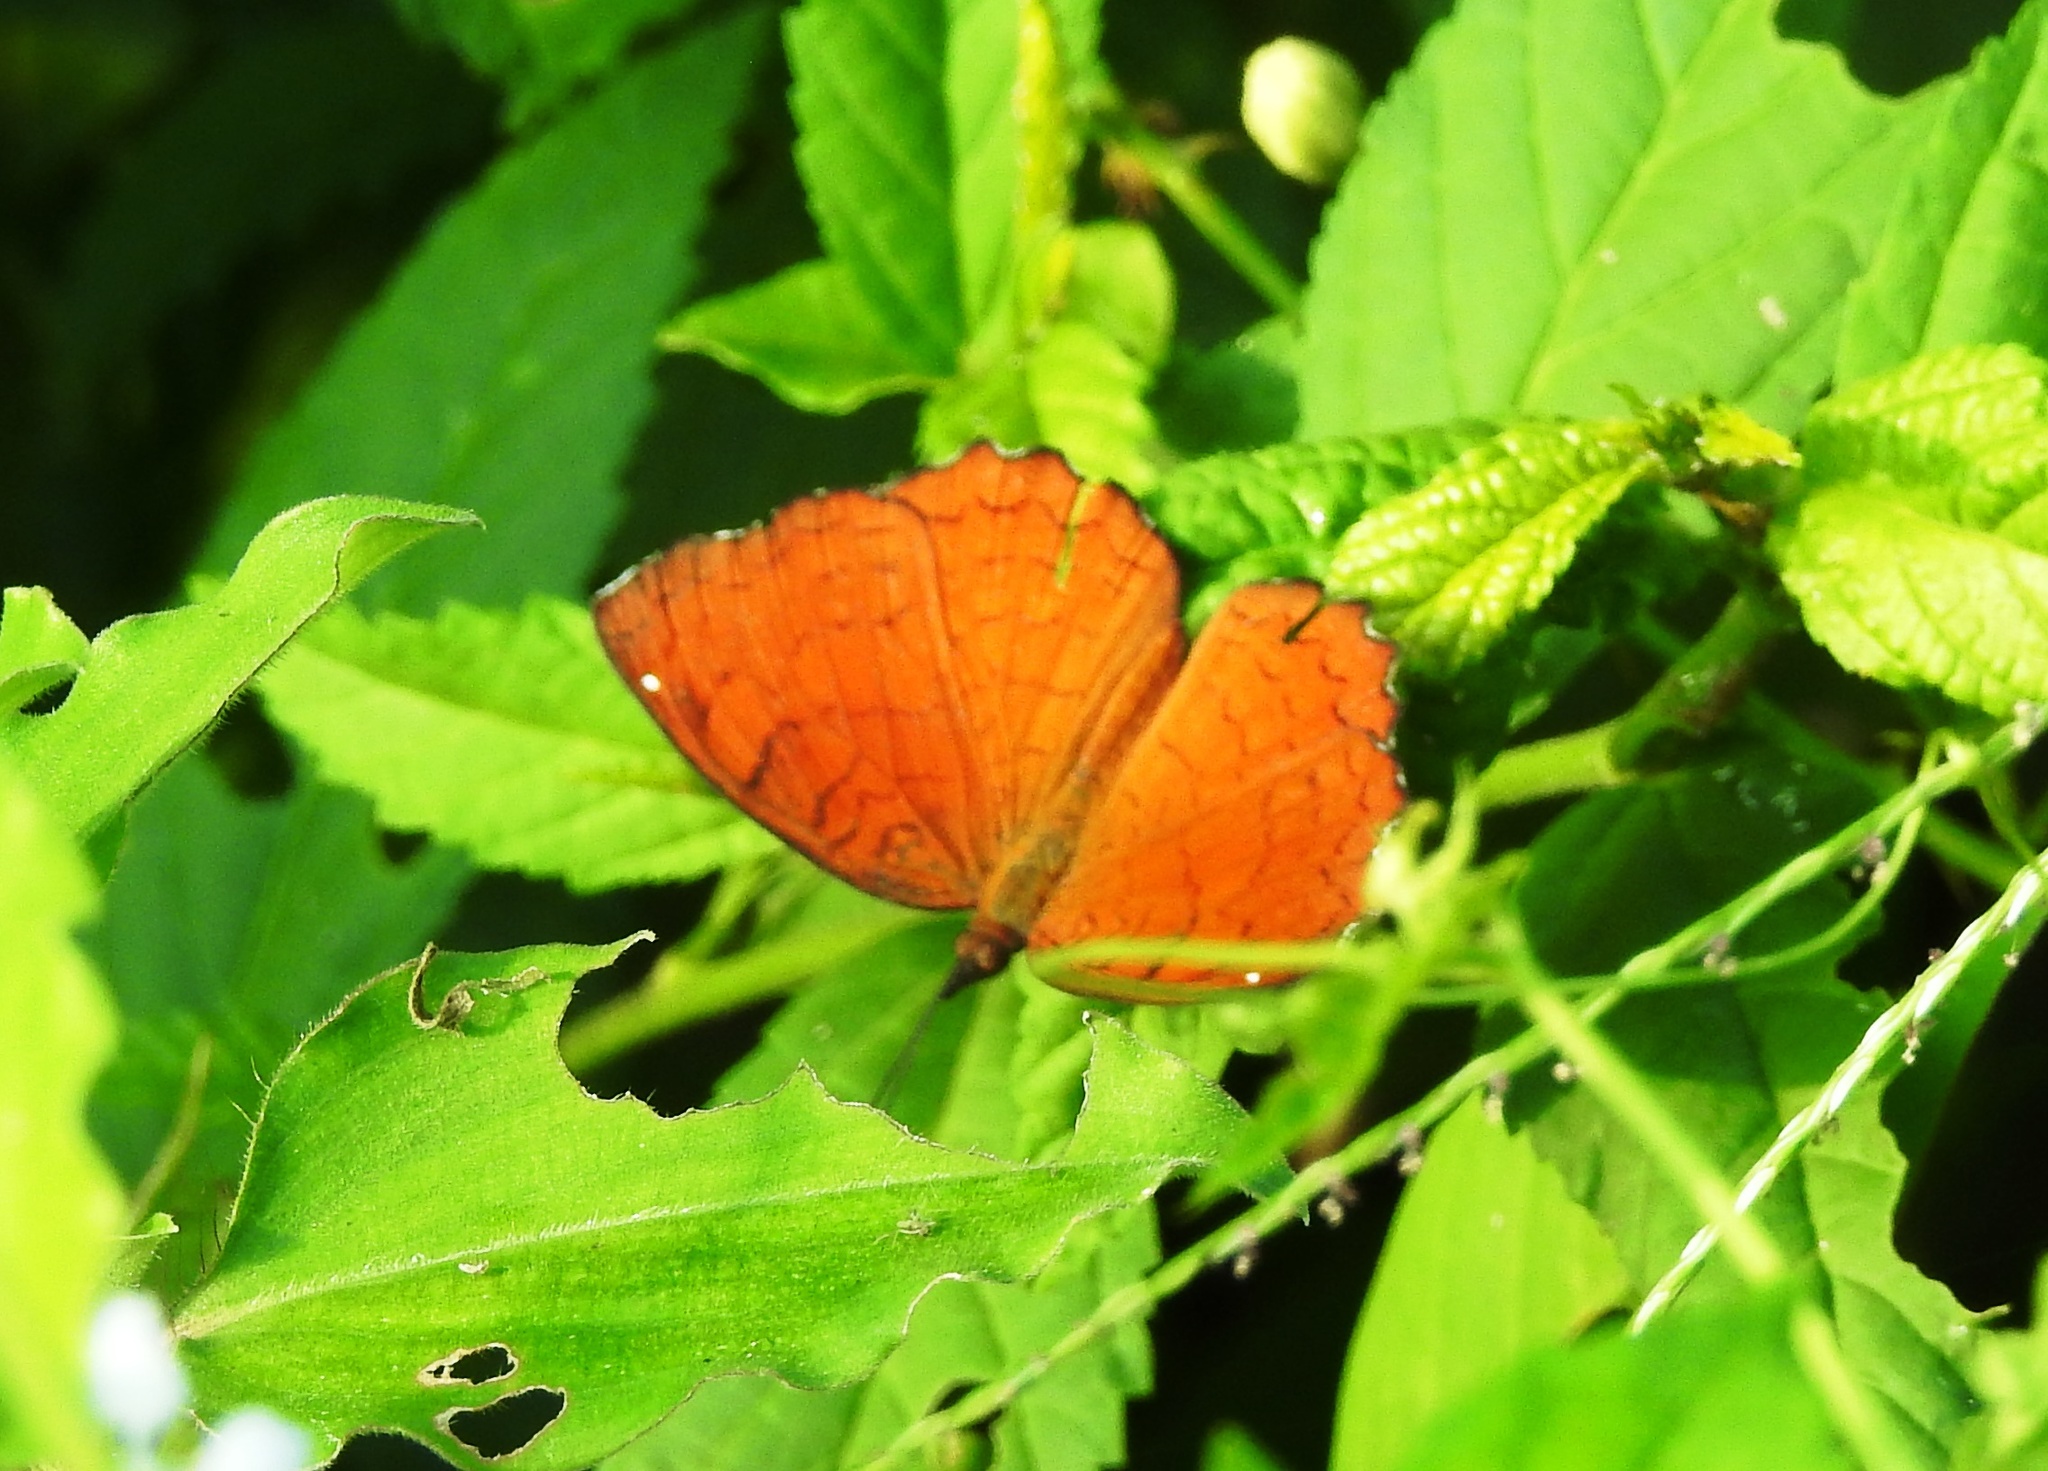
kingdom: Animalia
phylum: Arthropoda
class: Insecta
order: Lepidoptera
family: Nymphalidae
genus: Ariadne
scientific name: Ariadne ariadne
